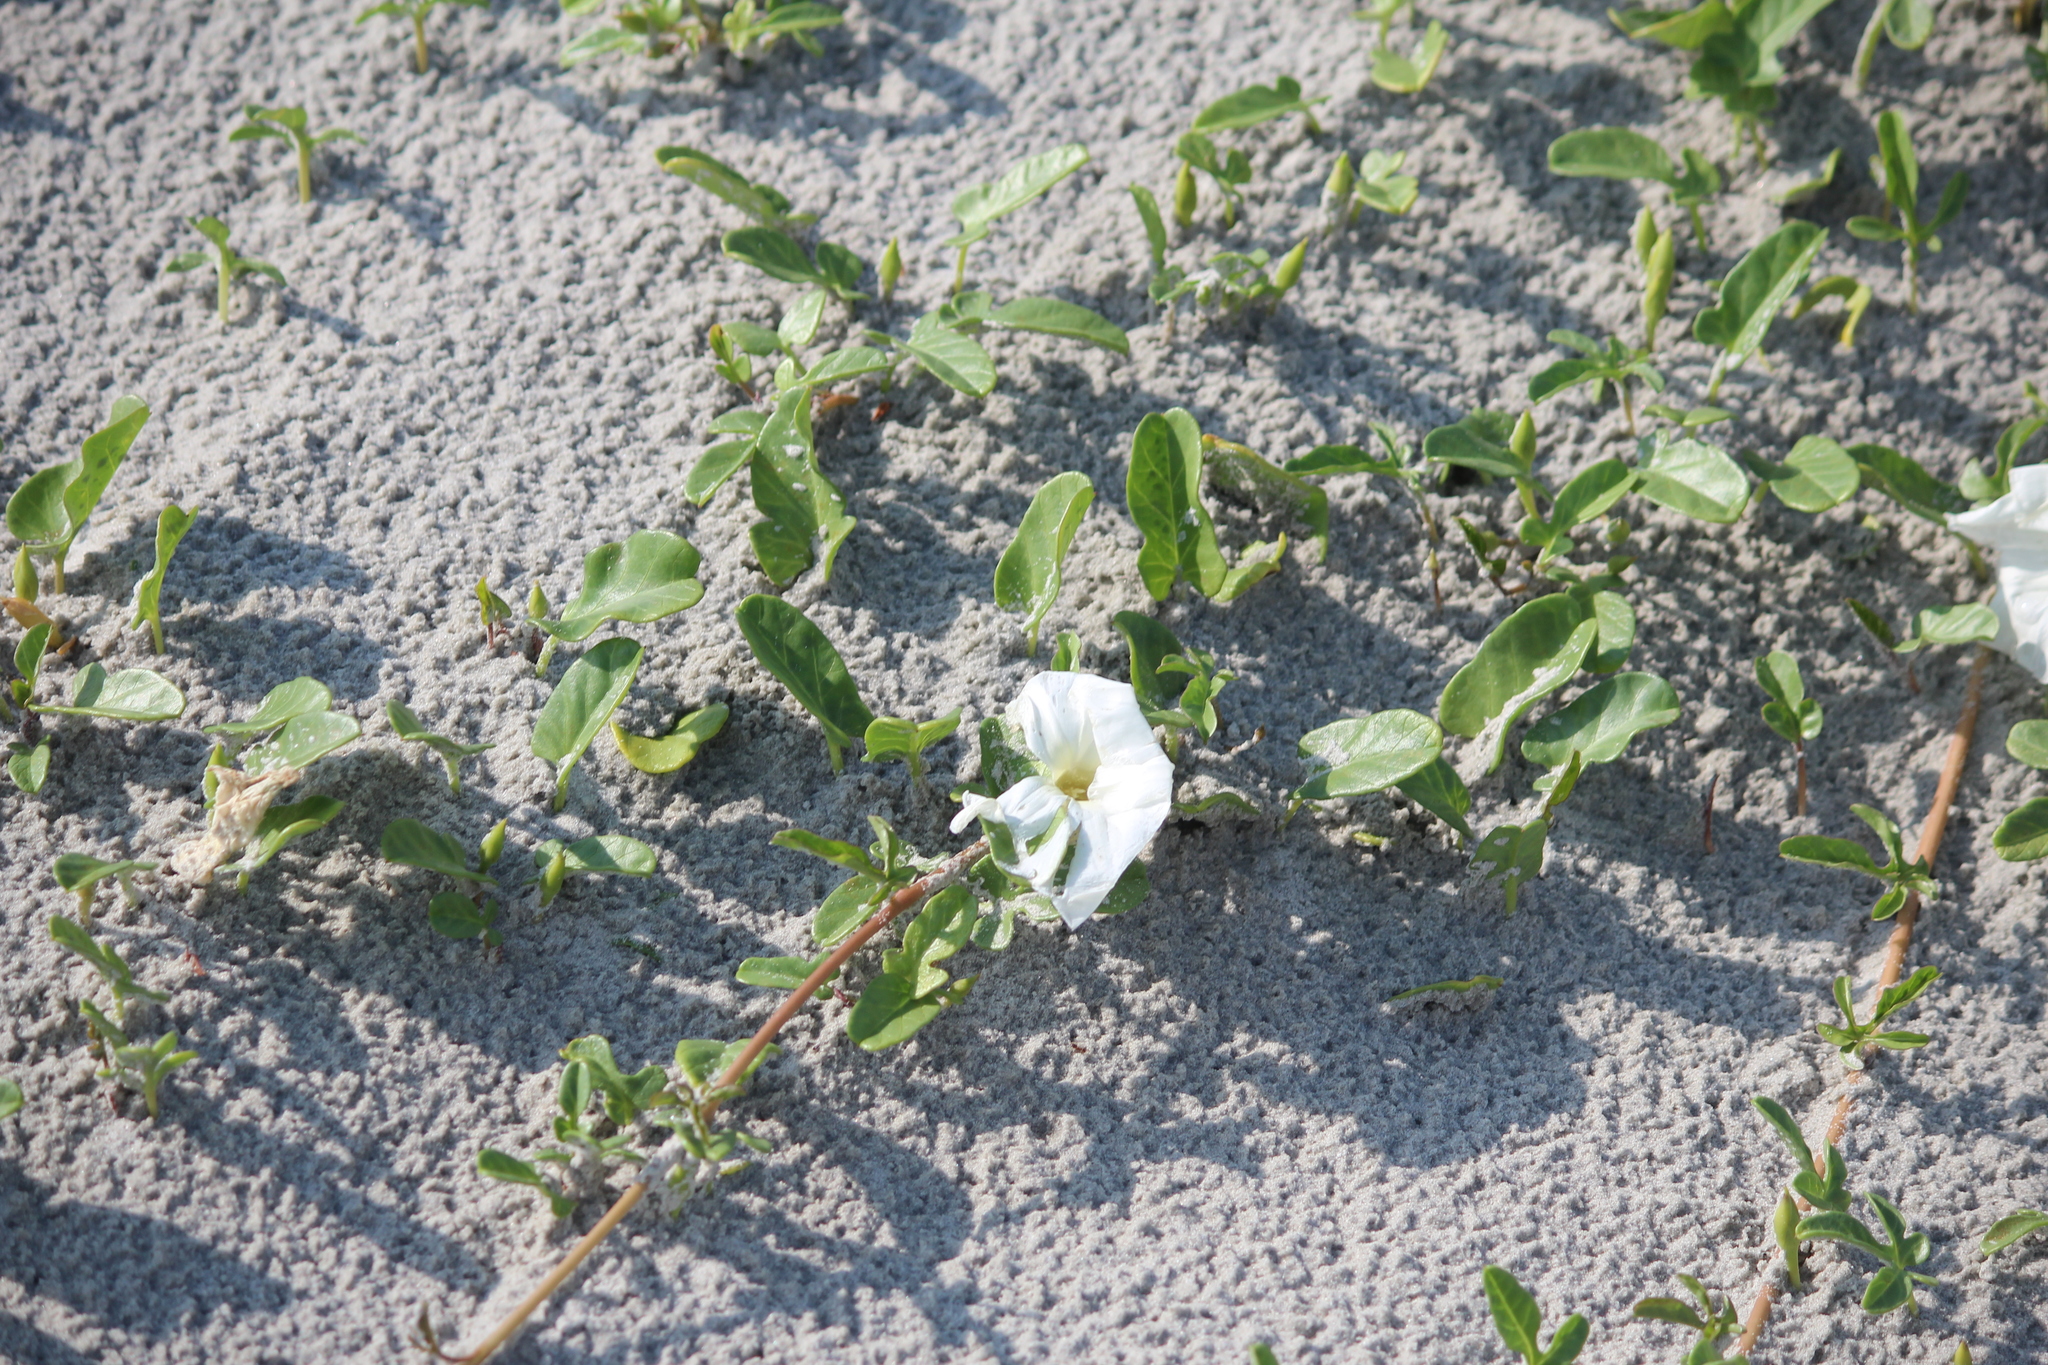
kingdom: Plantae
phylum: Tracheophyta
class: Magnoliopsida
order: Solanales
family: Convolvulaceae
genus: Ipomoea
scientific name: Ipomoea imperati
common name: Fiddle-leaf morning-glory
